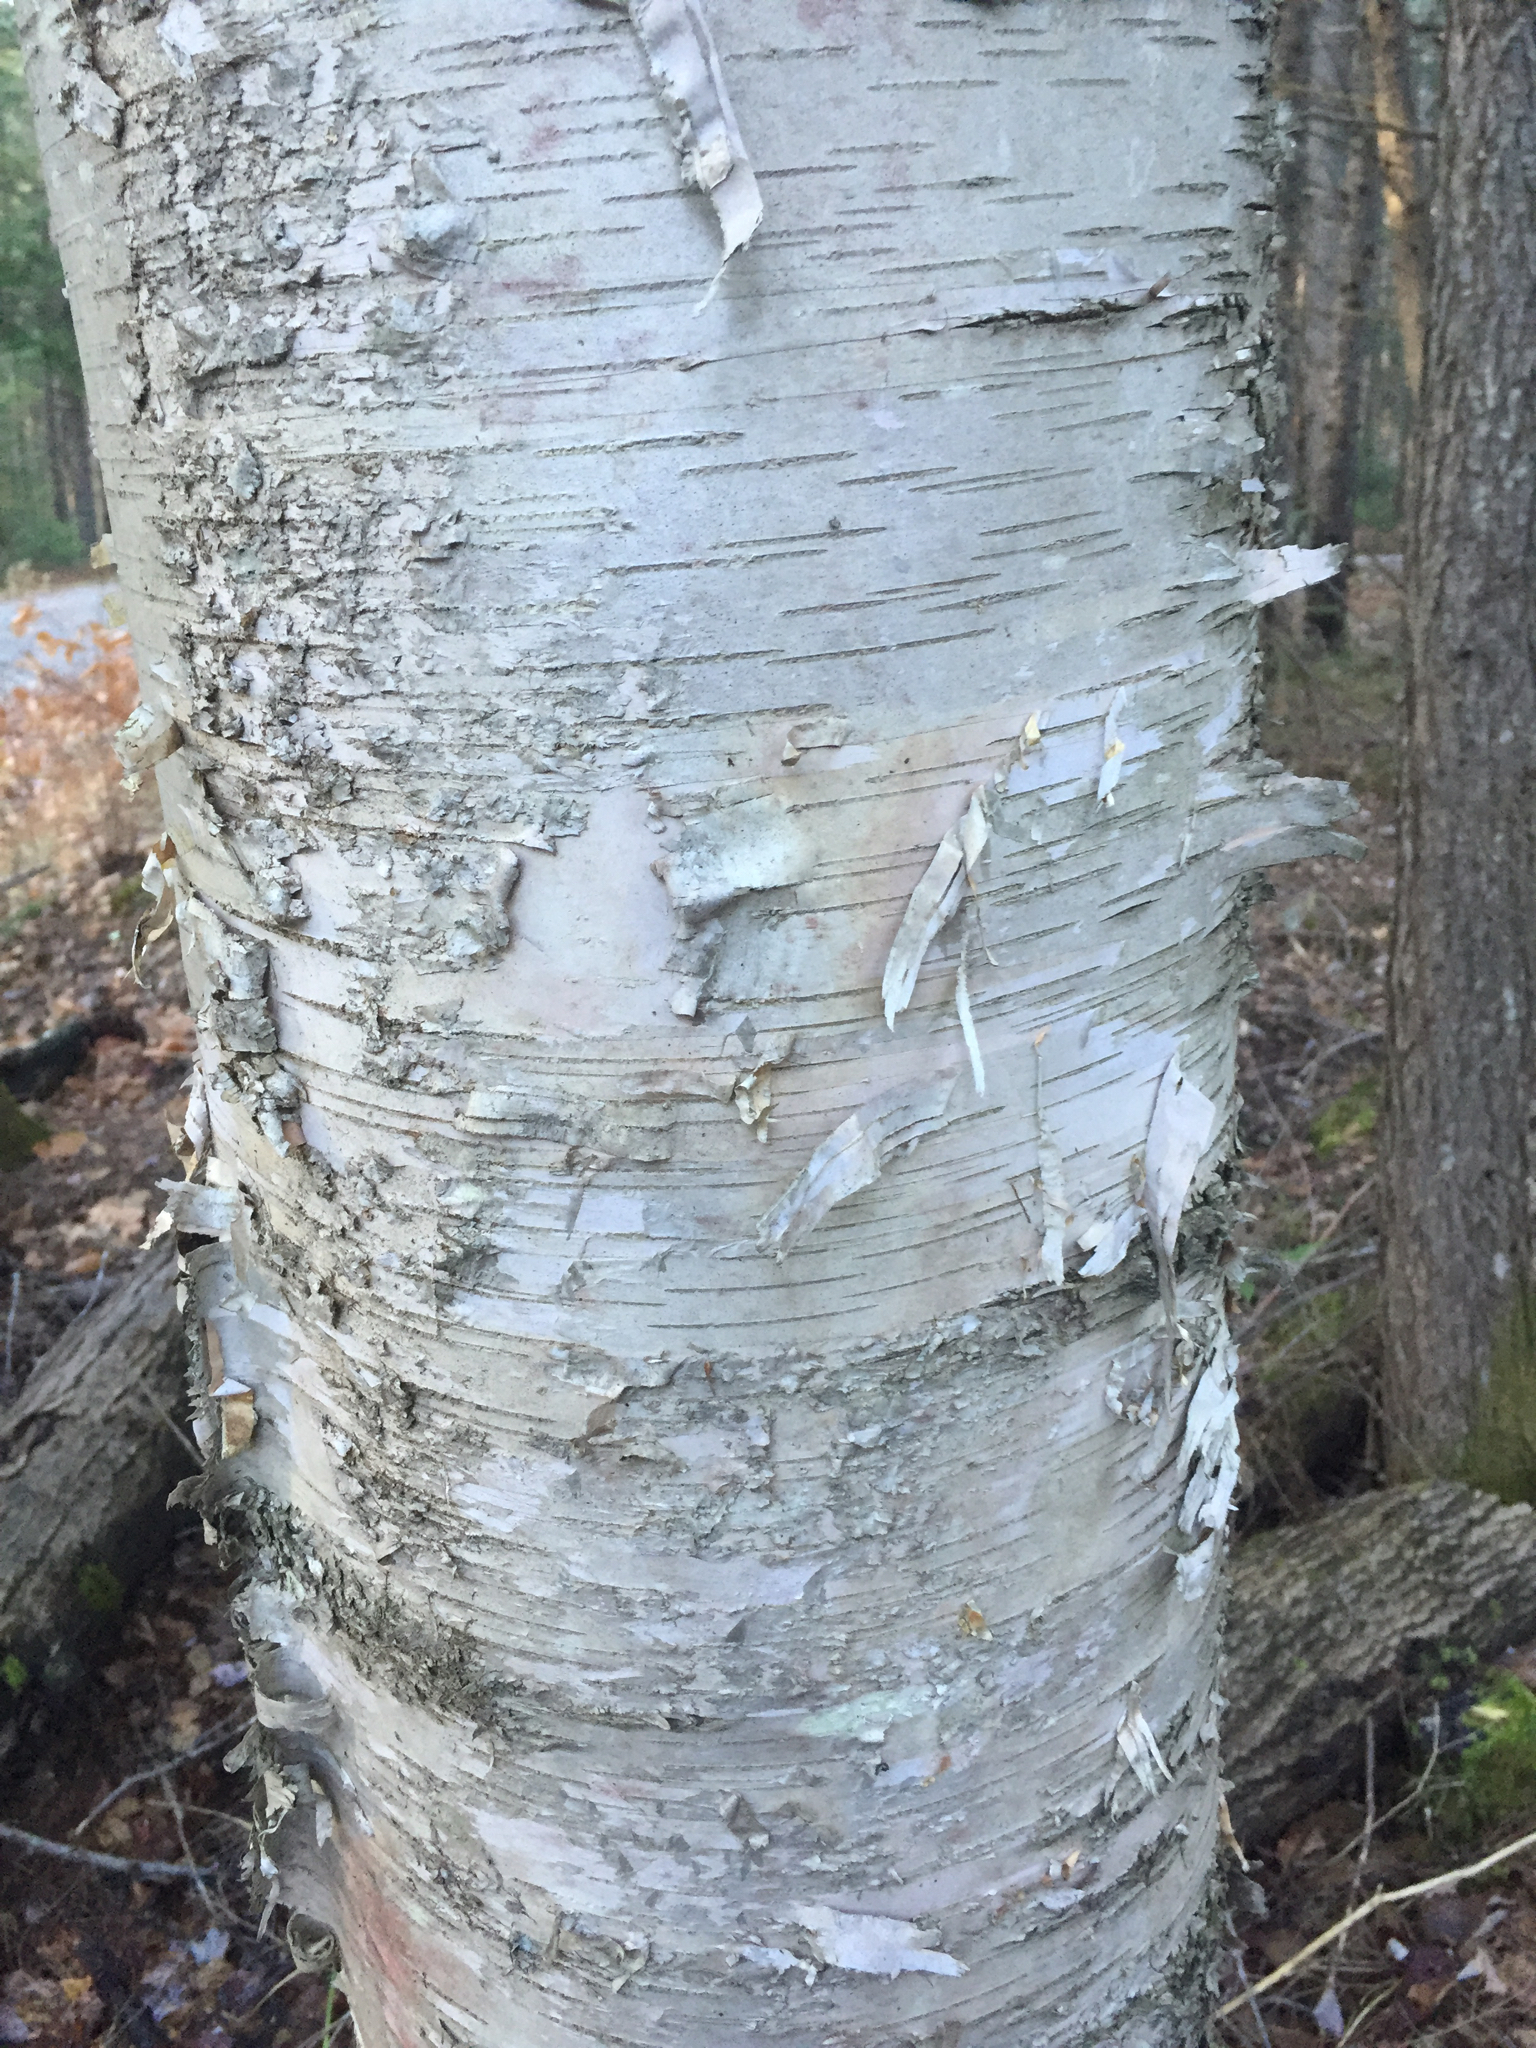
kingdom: Plantae
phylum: Tracheophyta
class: Magnoliopsida
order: Fagales
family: Betulaceae
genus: Betula
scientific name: Betula papyrifera
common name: Paper birch
